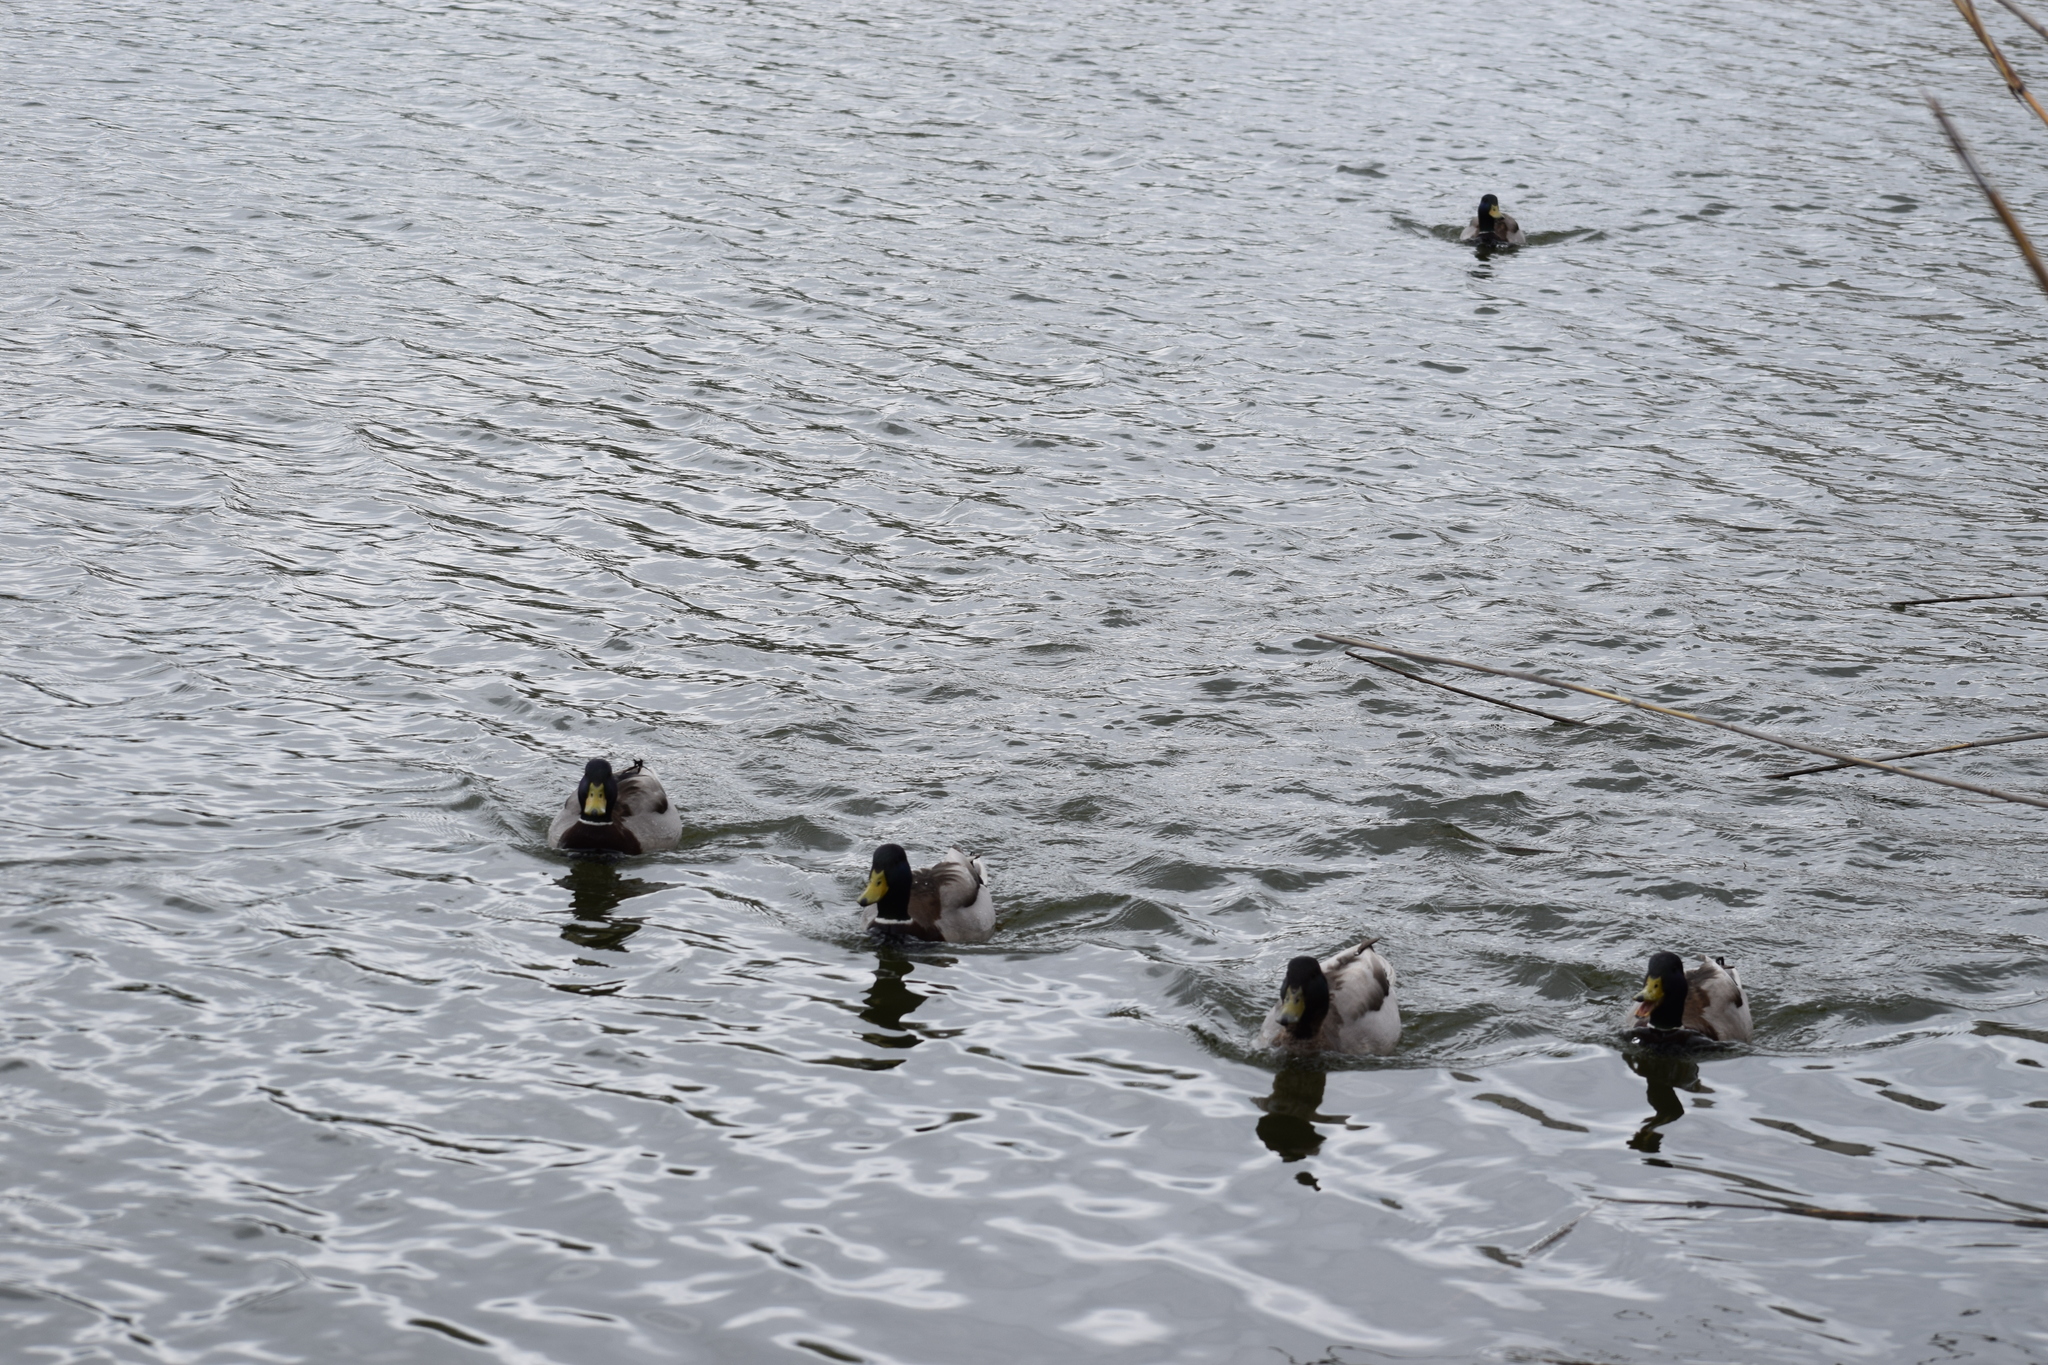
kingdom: Animalia
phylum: Chordata
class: Aves
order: Anseriformes
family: Anatidae
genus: Anas
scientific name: Anas platyrhynchos
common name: Mallard
